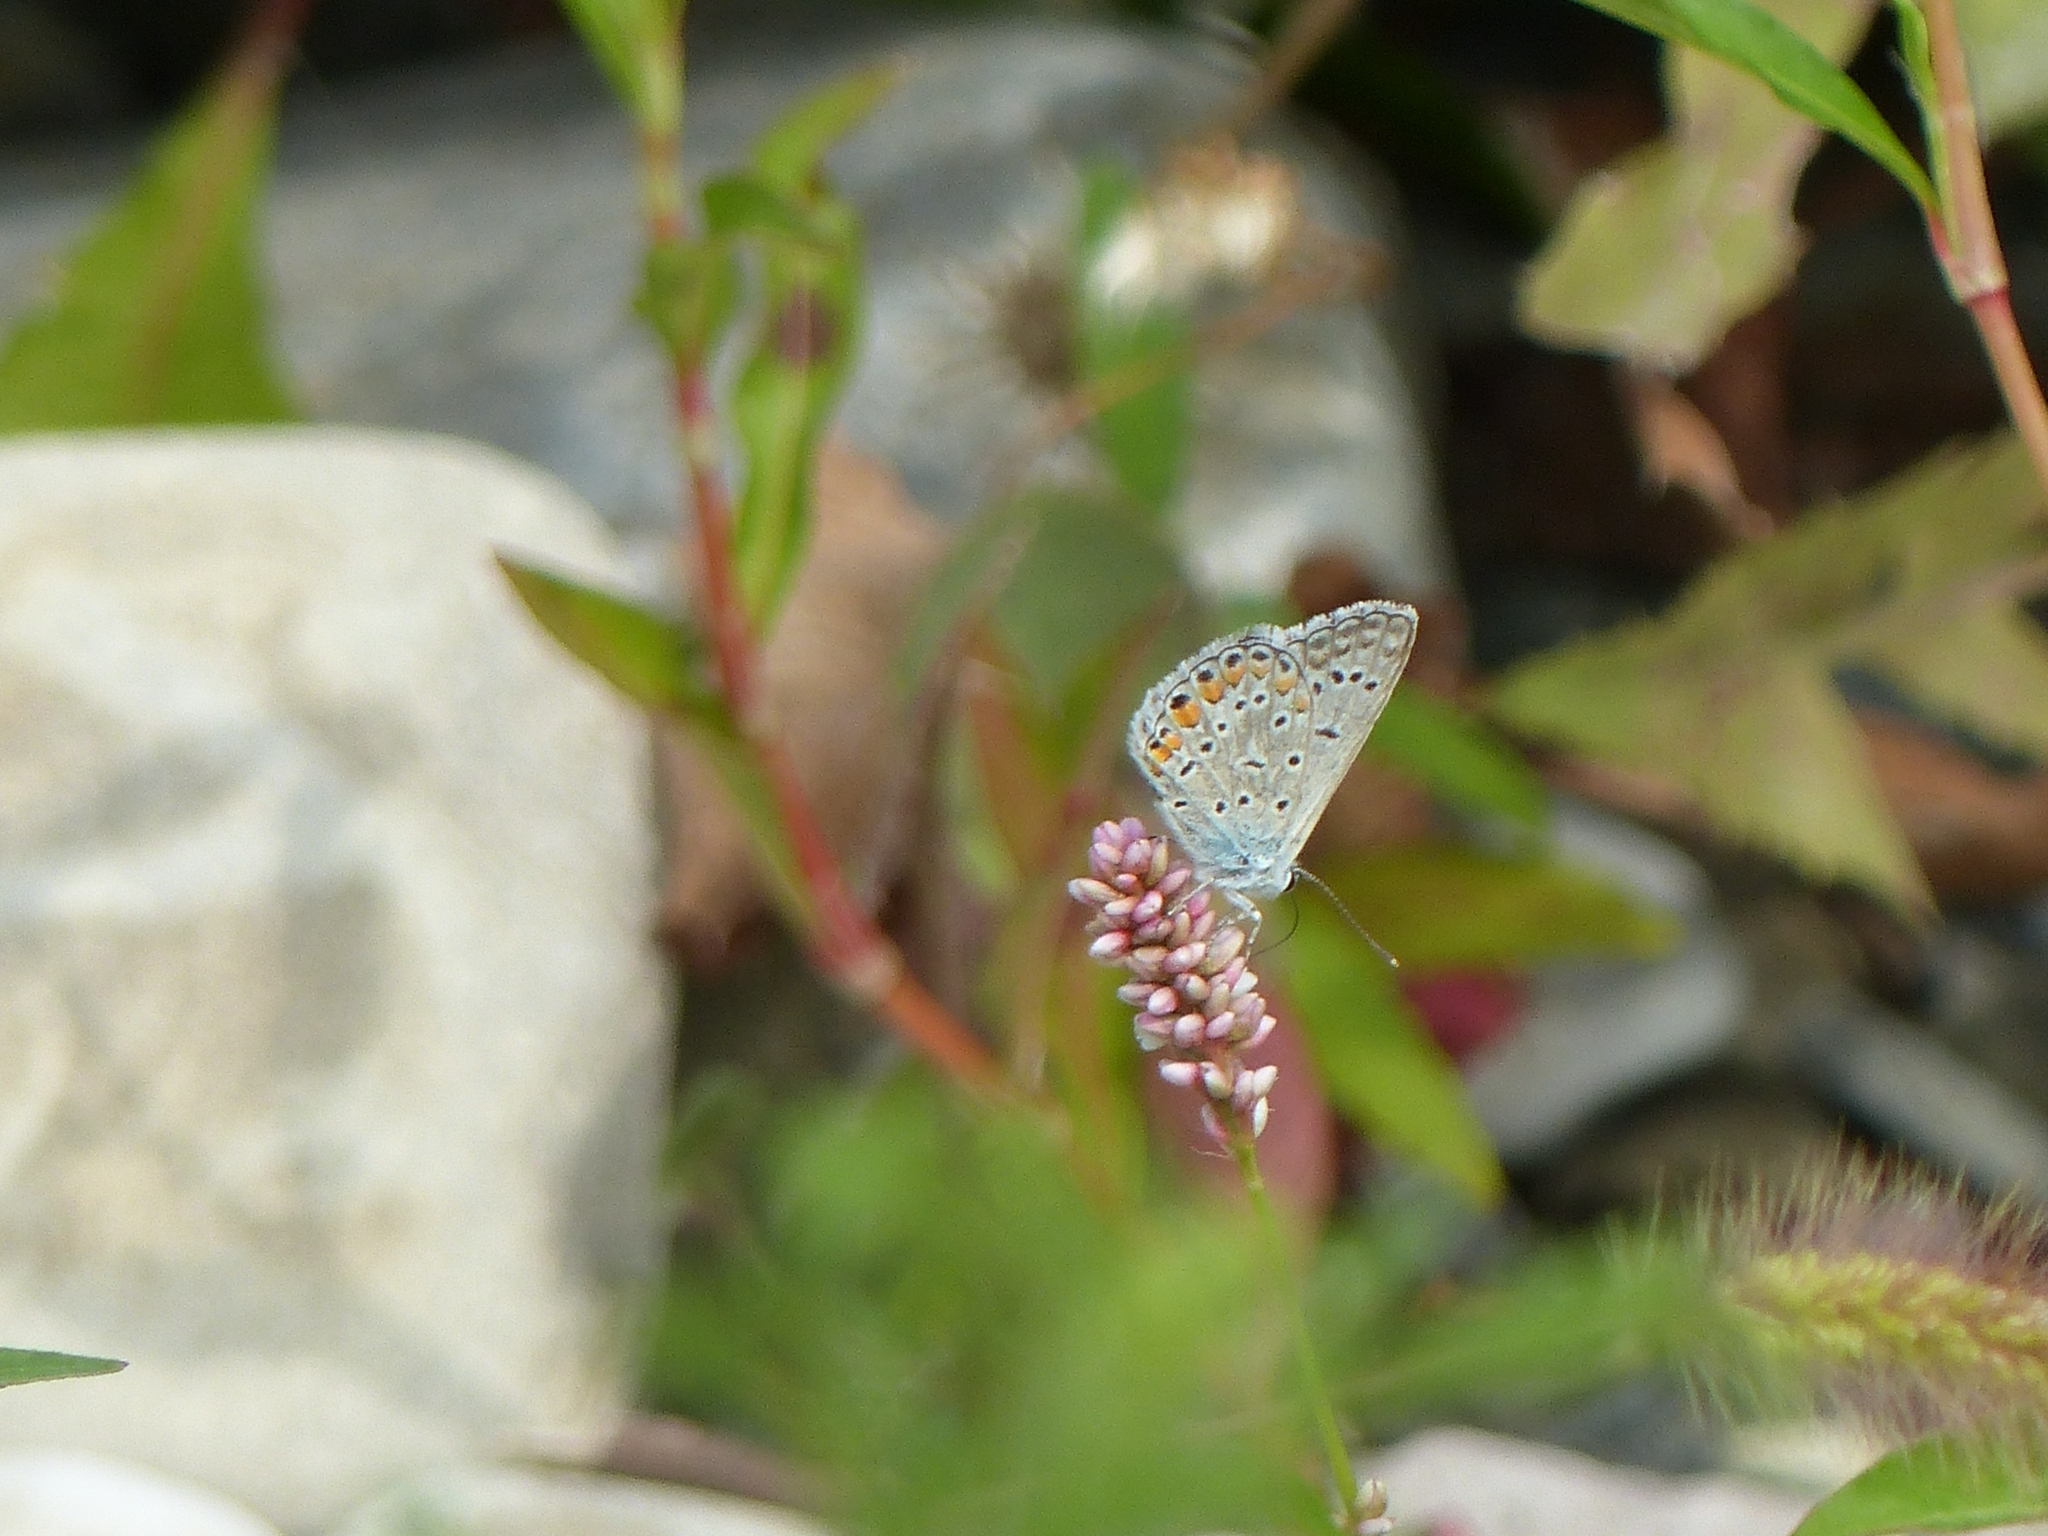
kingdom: Animalia
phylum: Arthropoda
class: Insecta
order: Lepidoptera
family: Lycaenidae
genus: Polyommatus
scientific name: Polyommatus icarus
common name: Common blue
